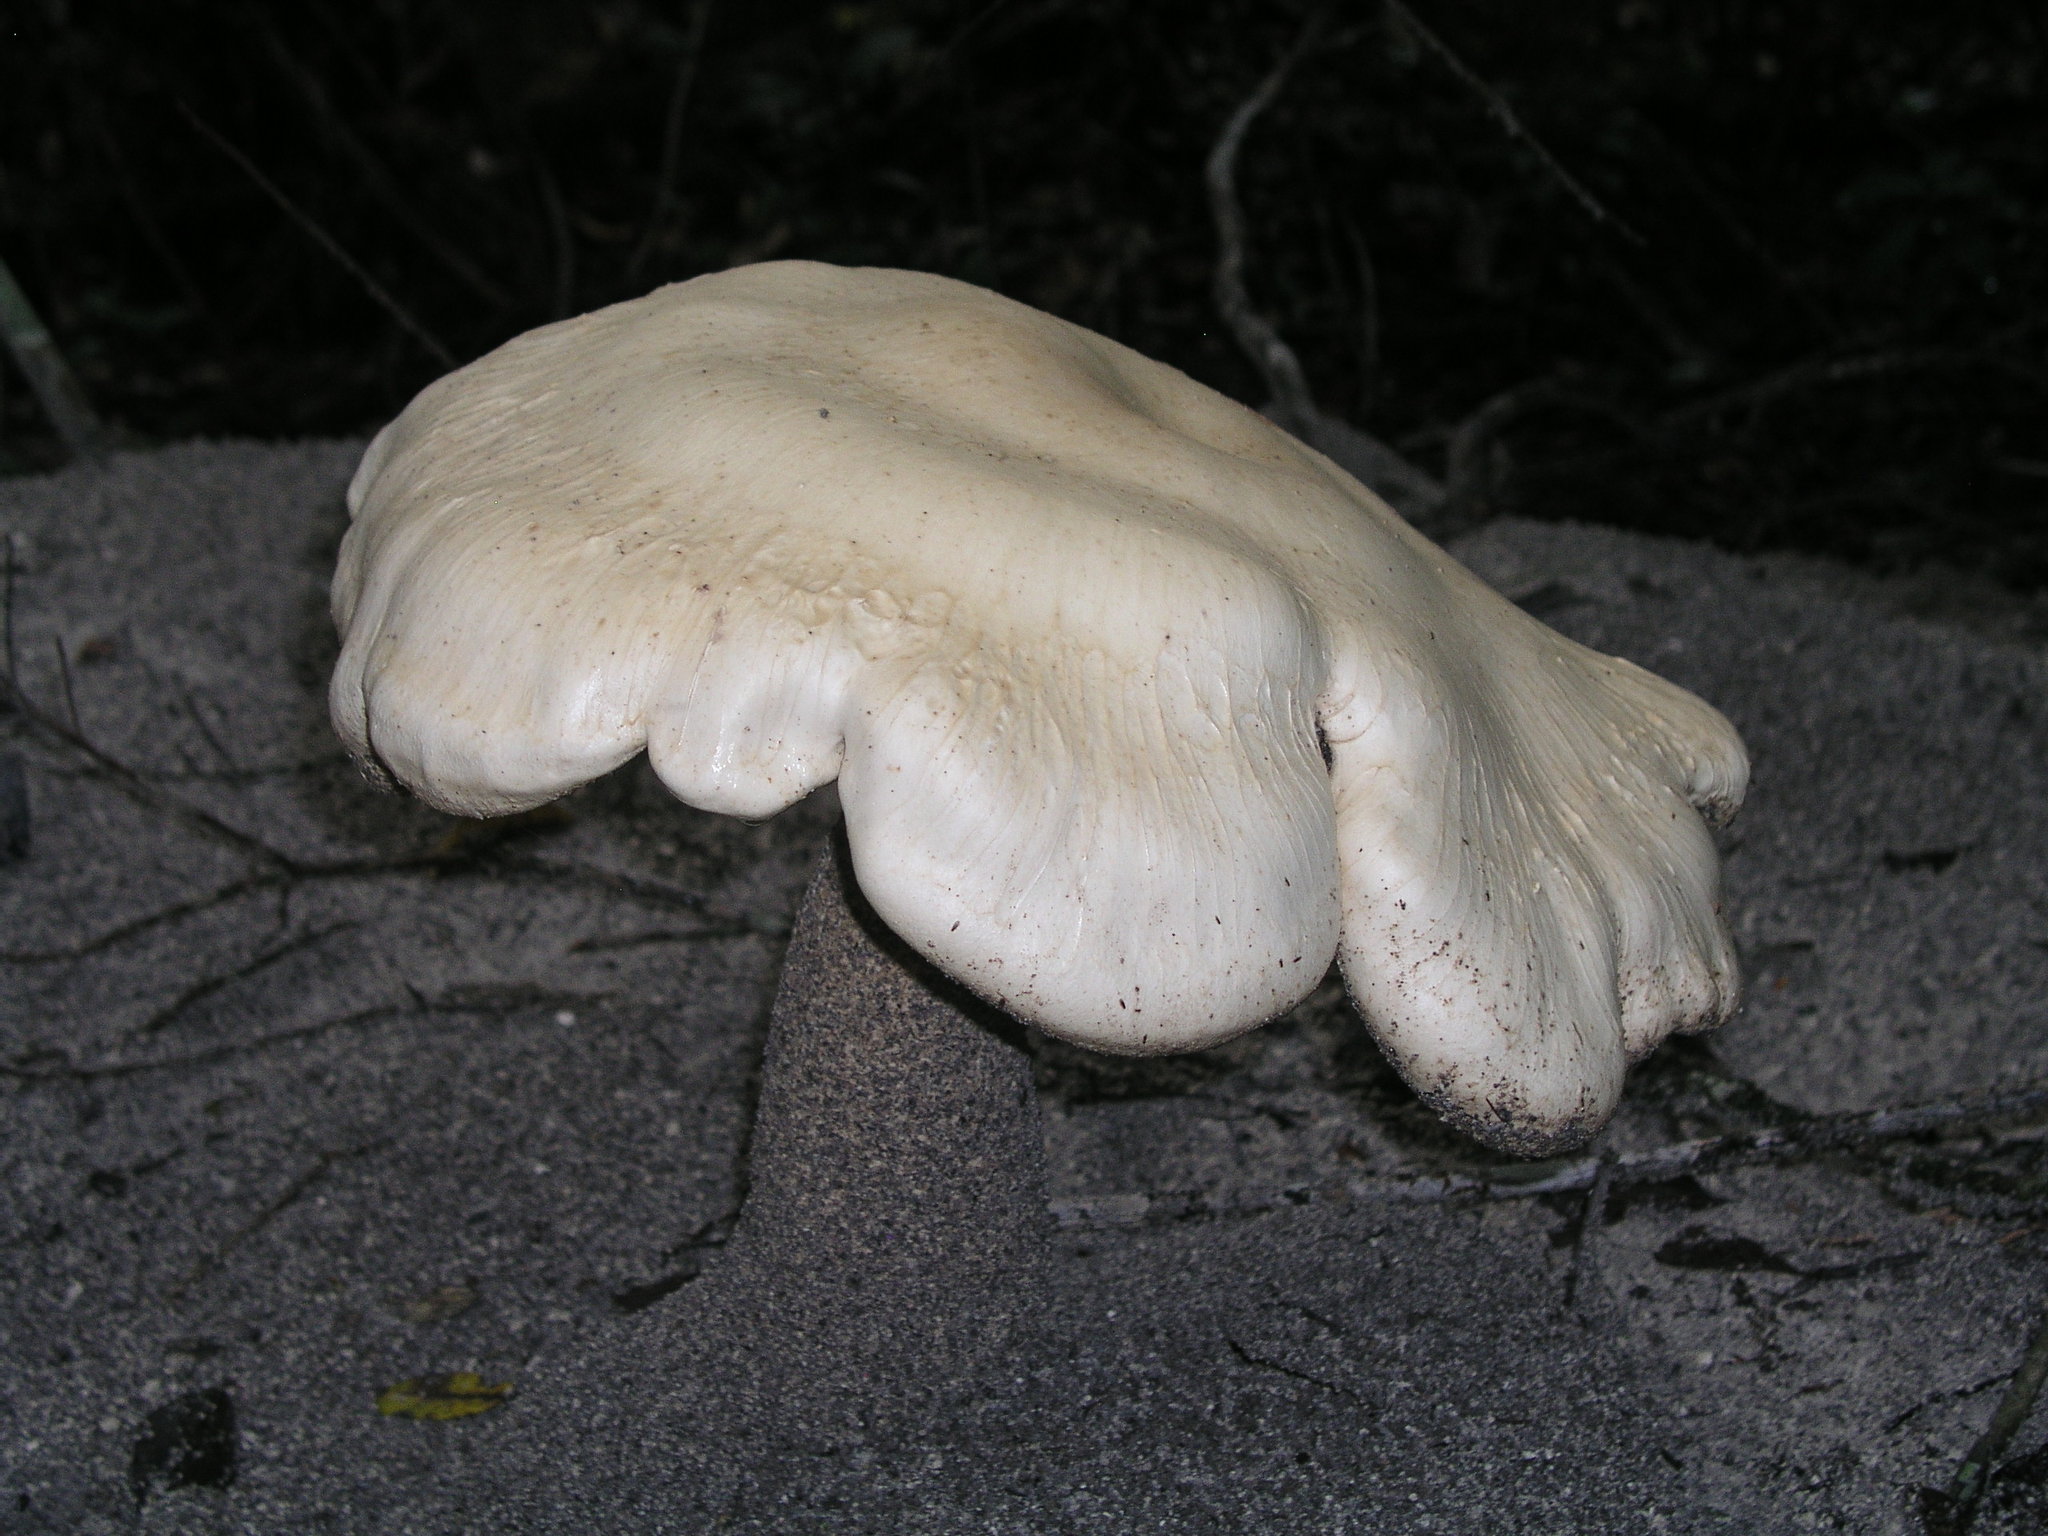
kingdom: Fungi
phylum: Basidiomycota
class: Agaricomycetes
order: Agaricales
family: Callistosporiaceae
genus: Macrocybe
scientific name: Macrocybe titans
